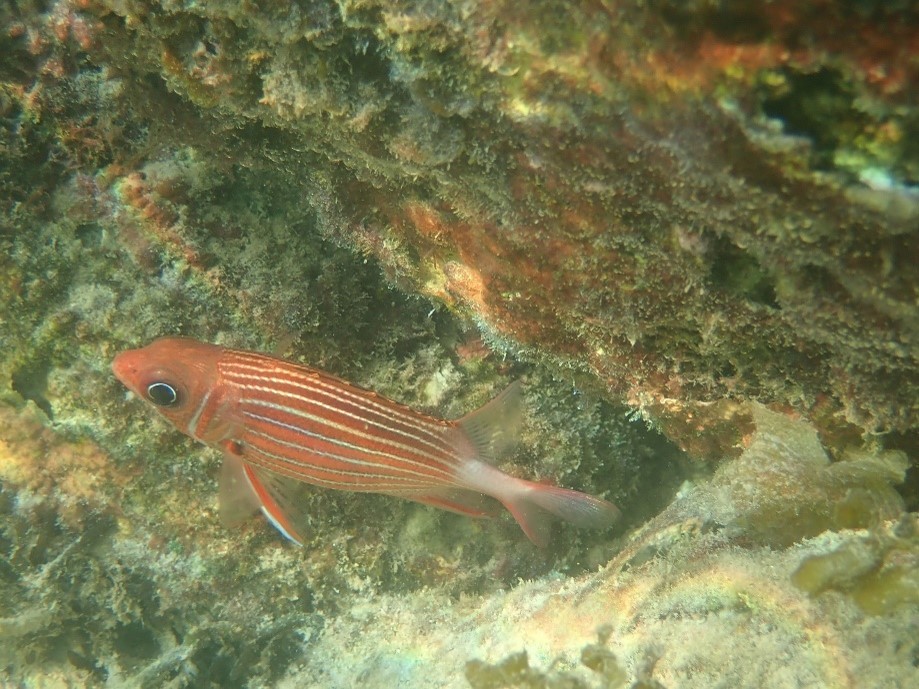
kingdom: Animalia
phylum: Chordata
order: Beryciformes
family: Holocentridae
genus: Sargocentron
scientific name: Sargocentron diadema
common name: Crown squirrelfish
